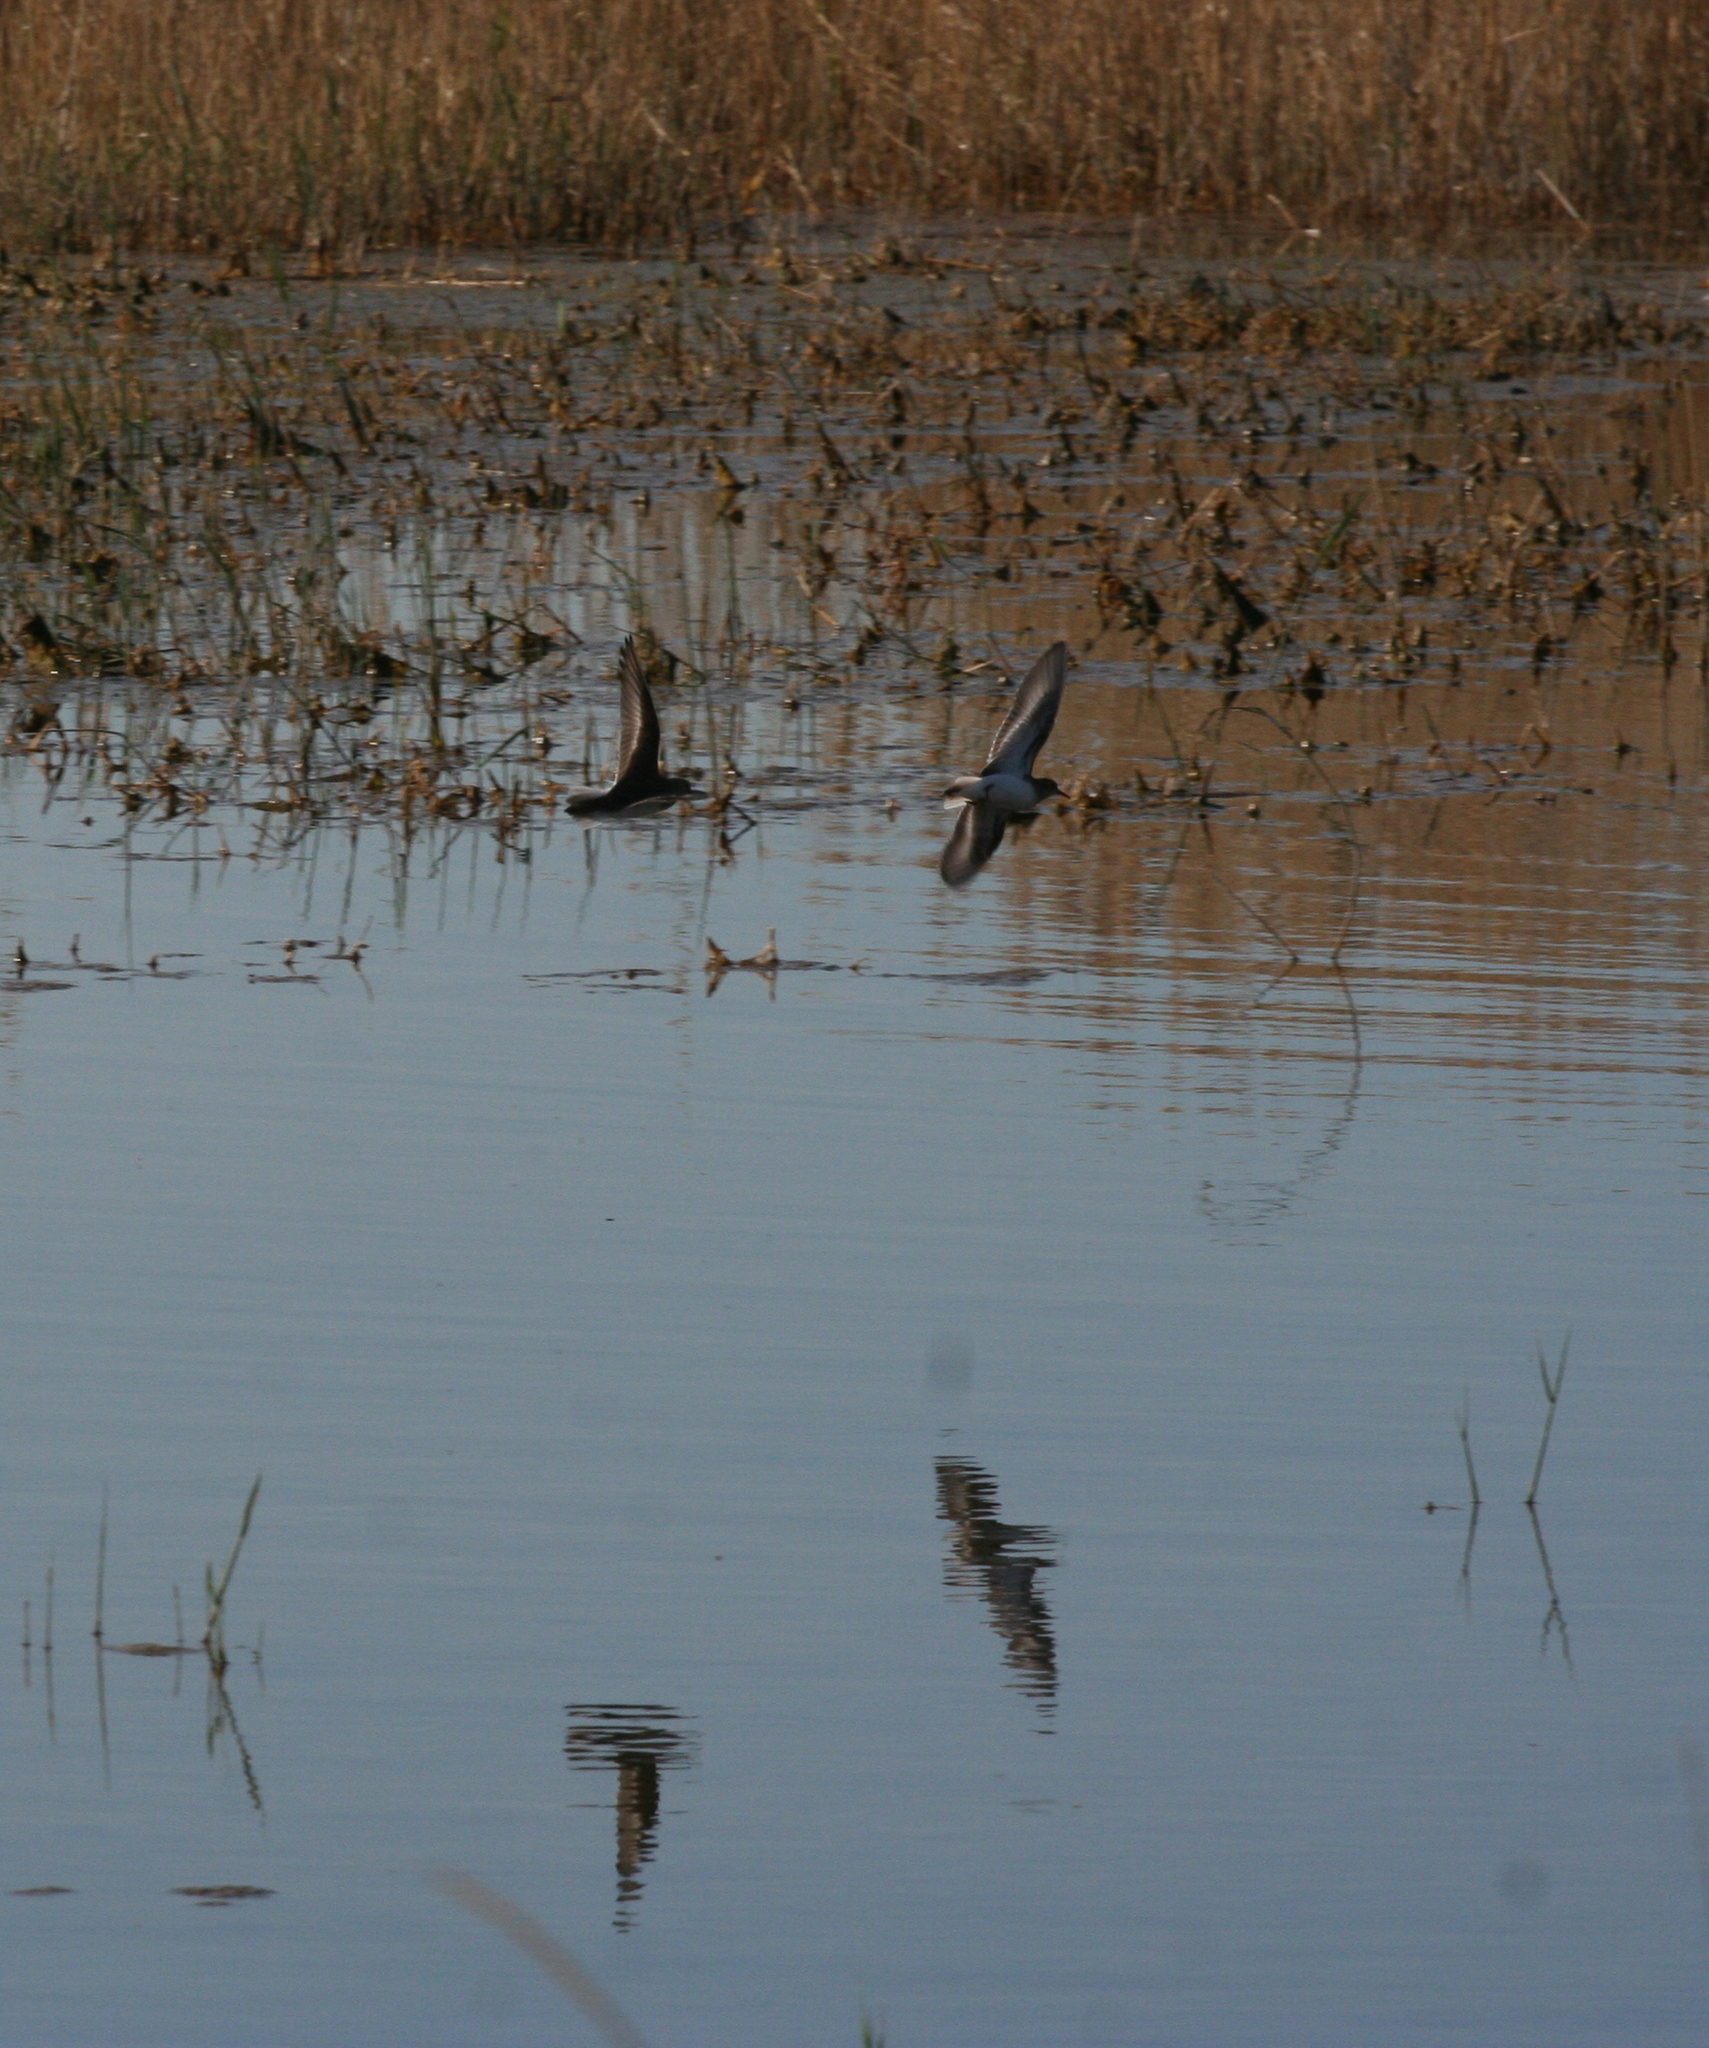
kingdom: Animalia
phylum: Chordata
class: Aves
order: Charadriiformes
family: Scolopacidae
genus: Calidris
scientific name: Calidris temminckii
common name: Temminck's stint
